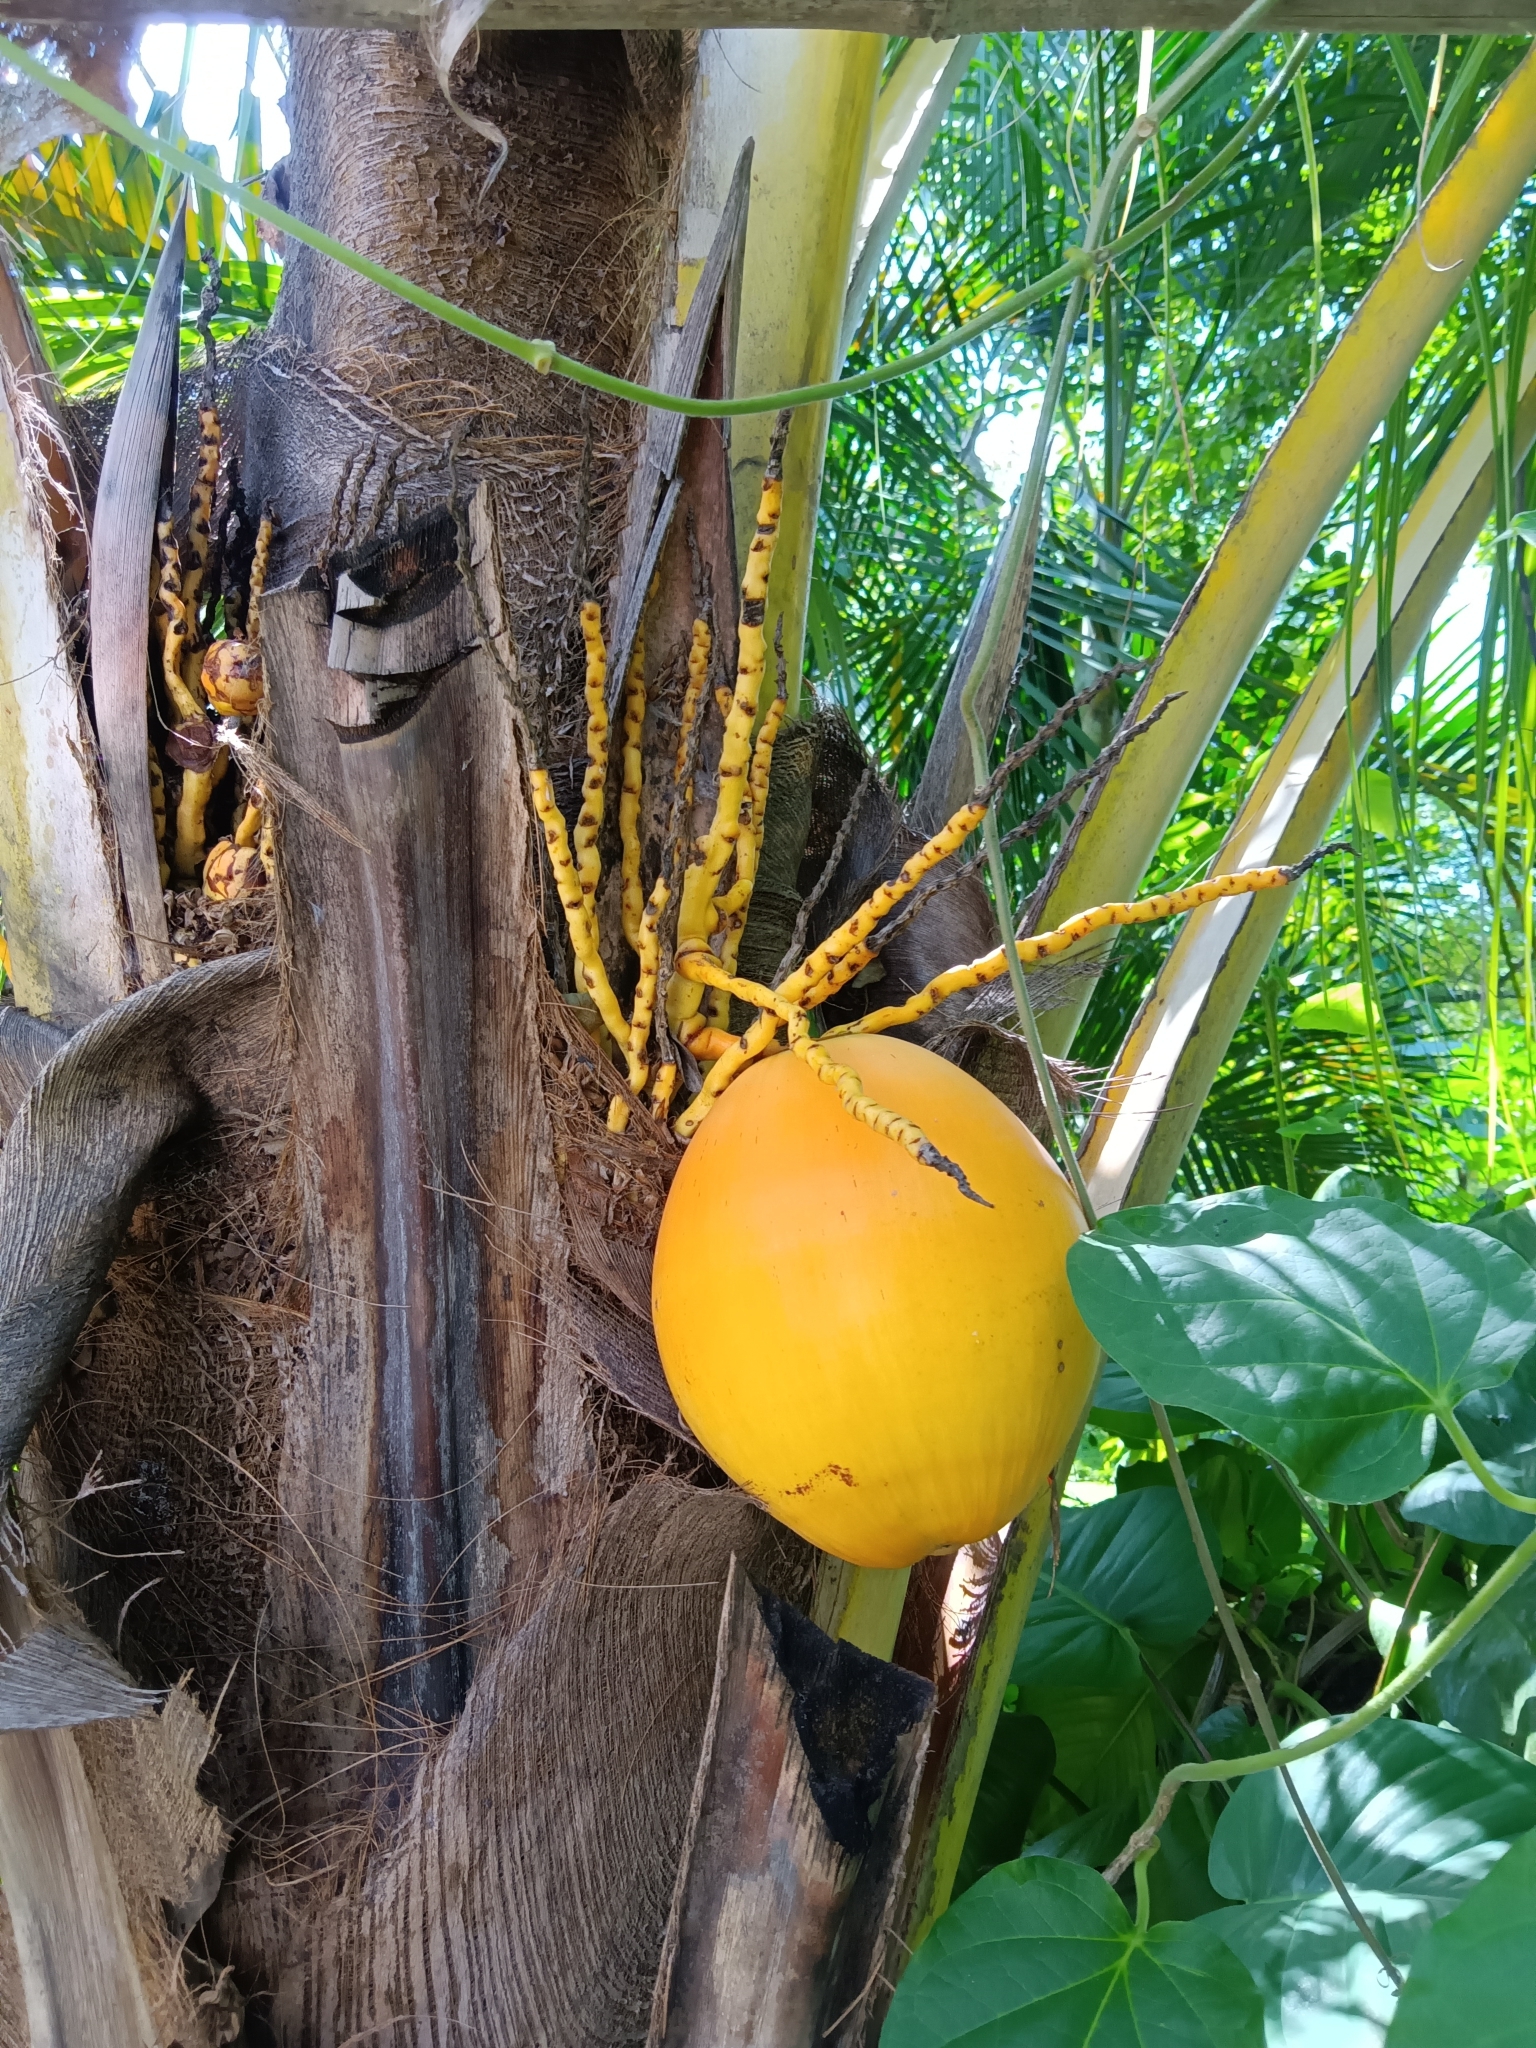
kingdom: Plantae
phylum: Tracheophyta
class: Liliopsida
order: Arecales
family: Arecaceae
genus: Cocos
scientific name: Cocos nucifera
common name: Coconut palm
